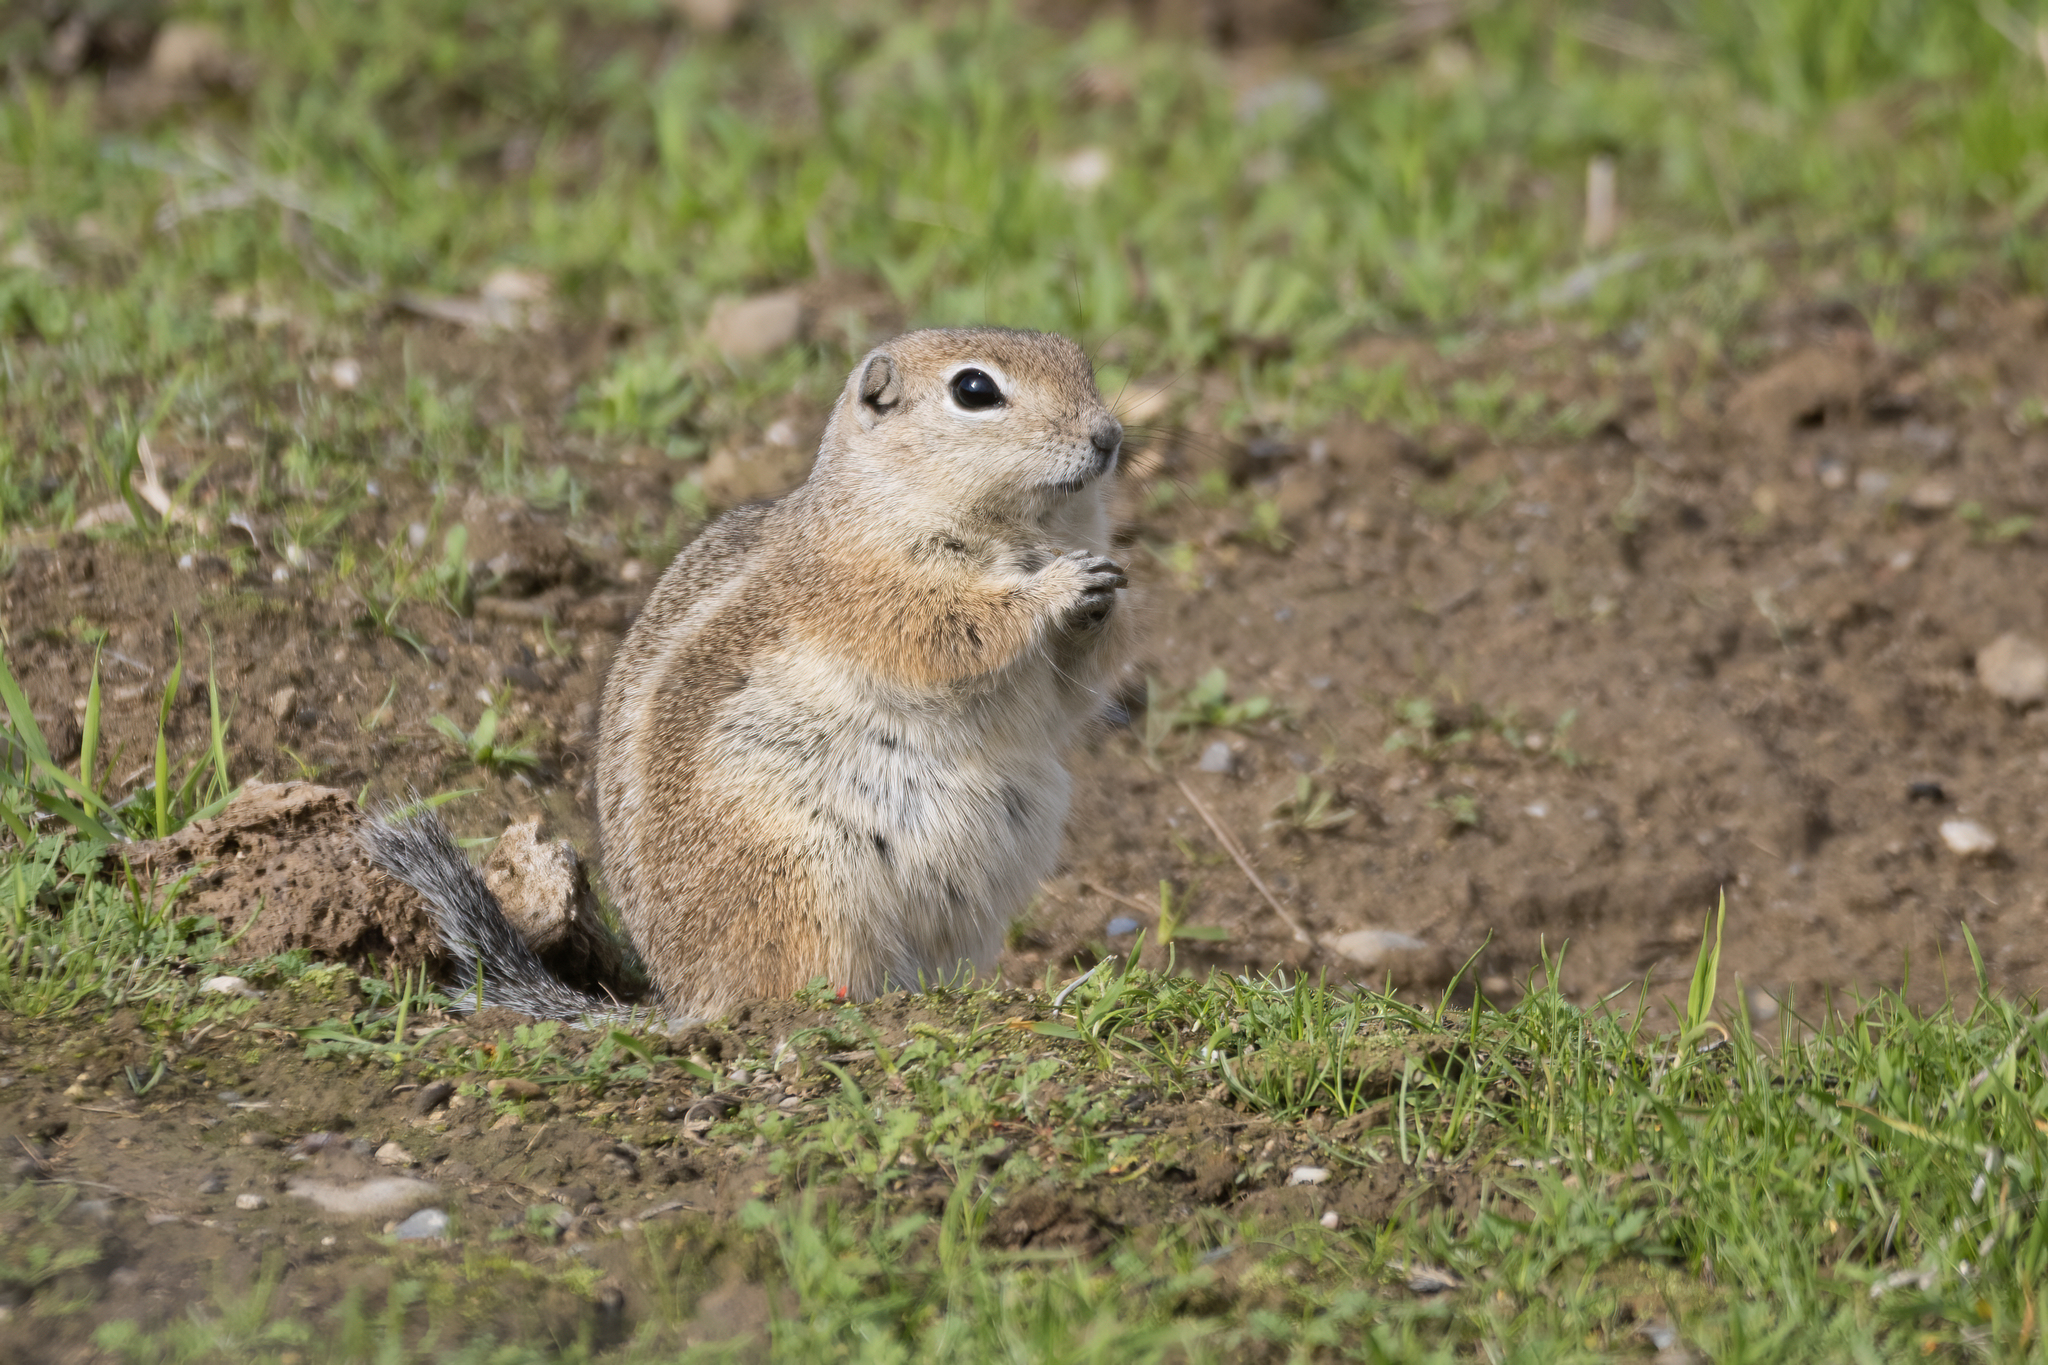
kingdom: Animalia
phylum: Chordata
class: Mammalia
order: Rodentia
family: Sciuridae
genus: Ammospermophilus
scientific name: Ammospermophilus nelsoni
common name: Nelson's antelope squirrel
